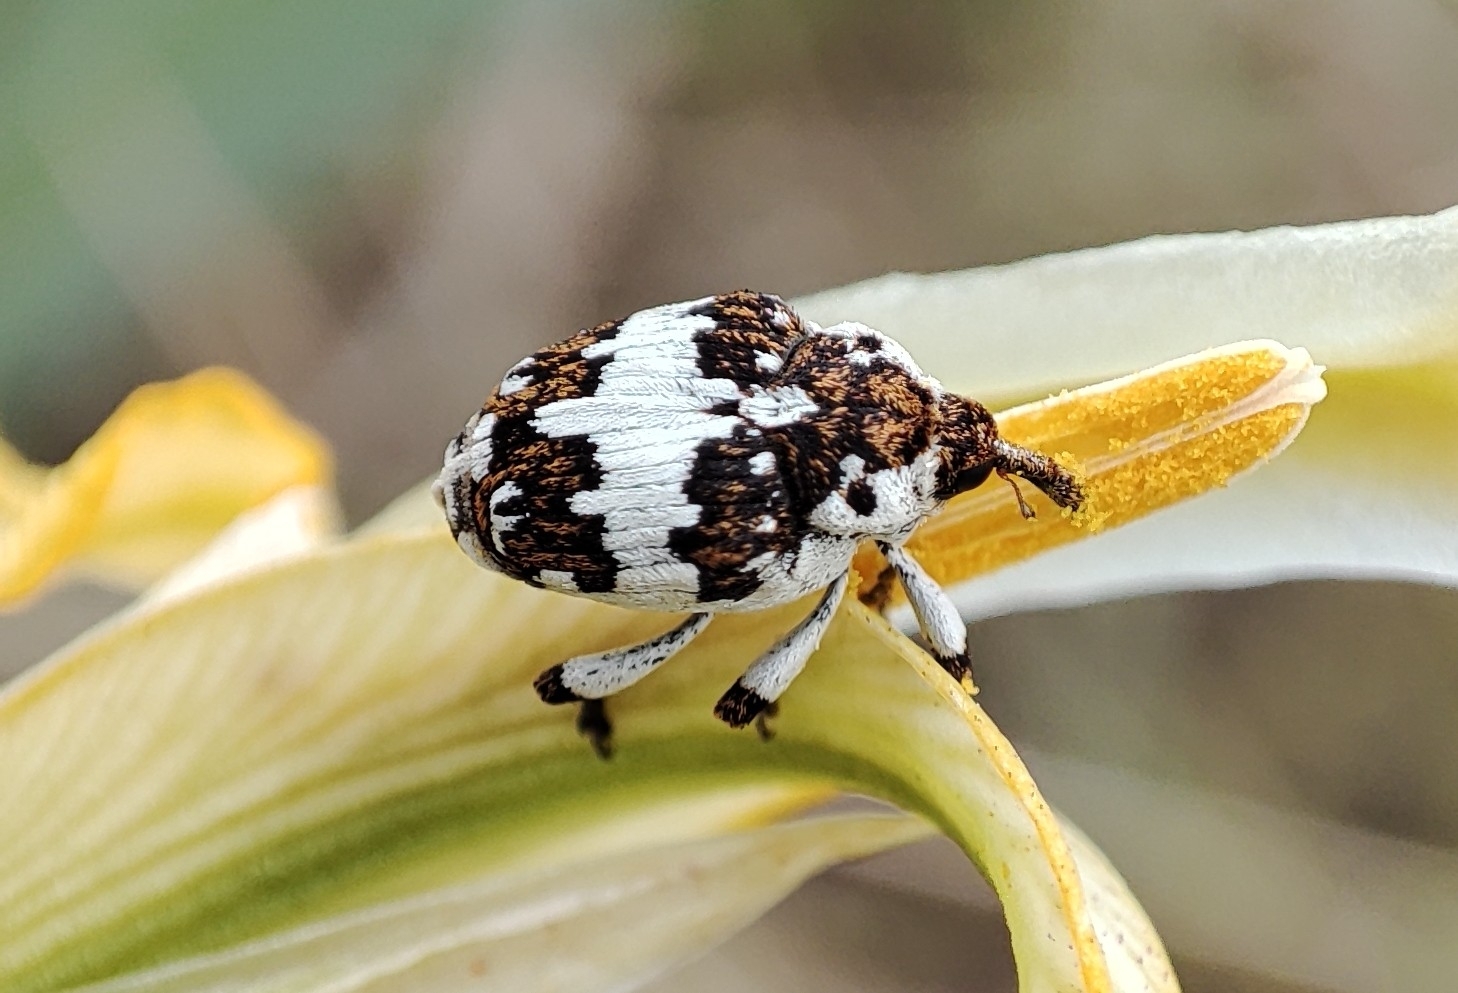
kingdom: Animalia
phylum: Arthropoda
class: Insecta
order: Coleoptera
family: Curculionidae
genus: Mononychus
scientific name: Mononychus ireos
